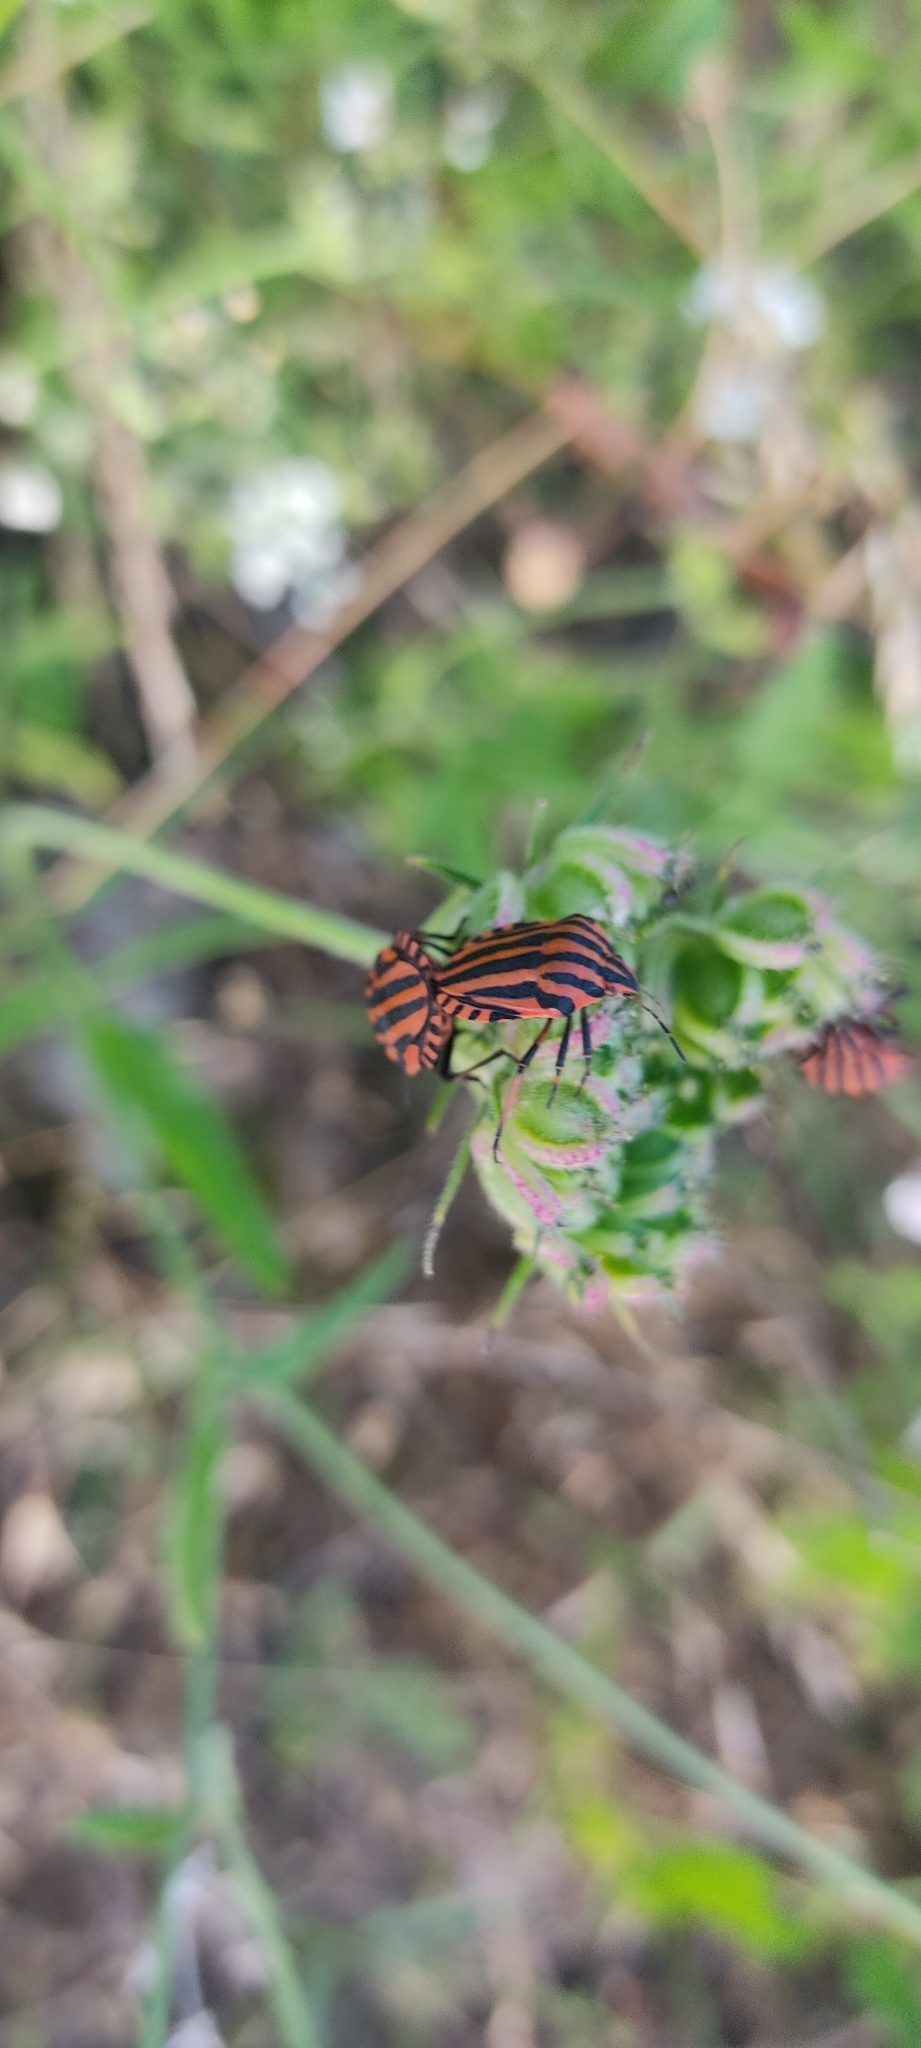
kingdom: Animalia
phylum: Arthropoda
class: Insecta
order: Hemiptera
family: Pentatomidae
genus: Graphosoma
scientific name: Graphosoma italicum
